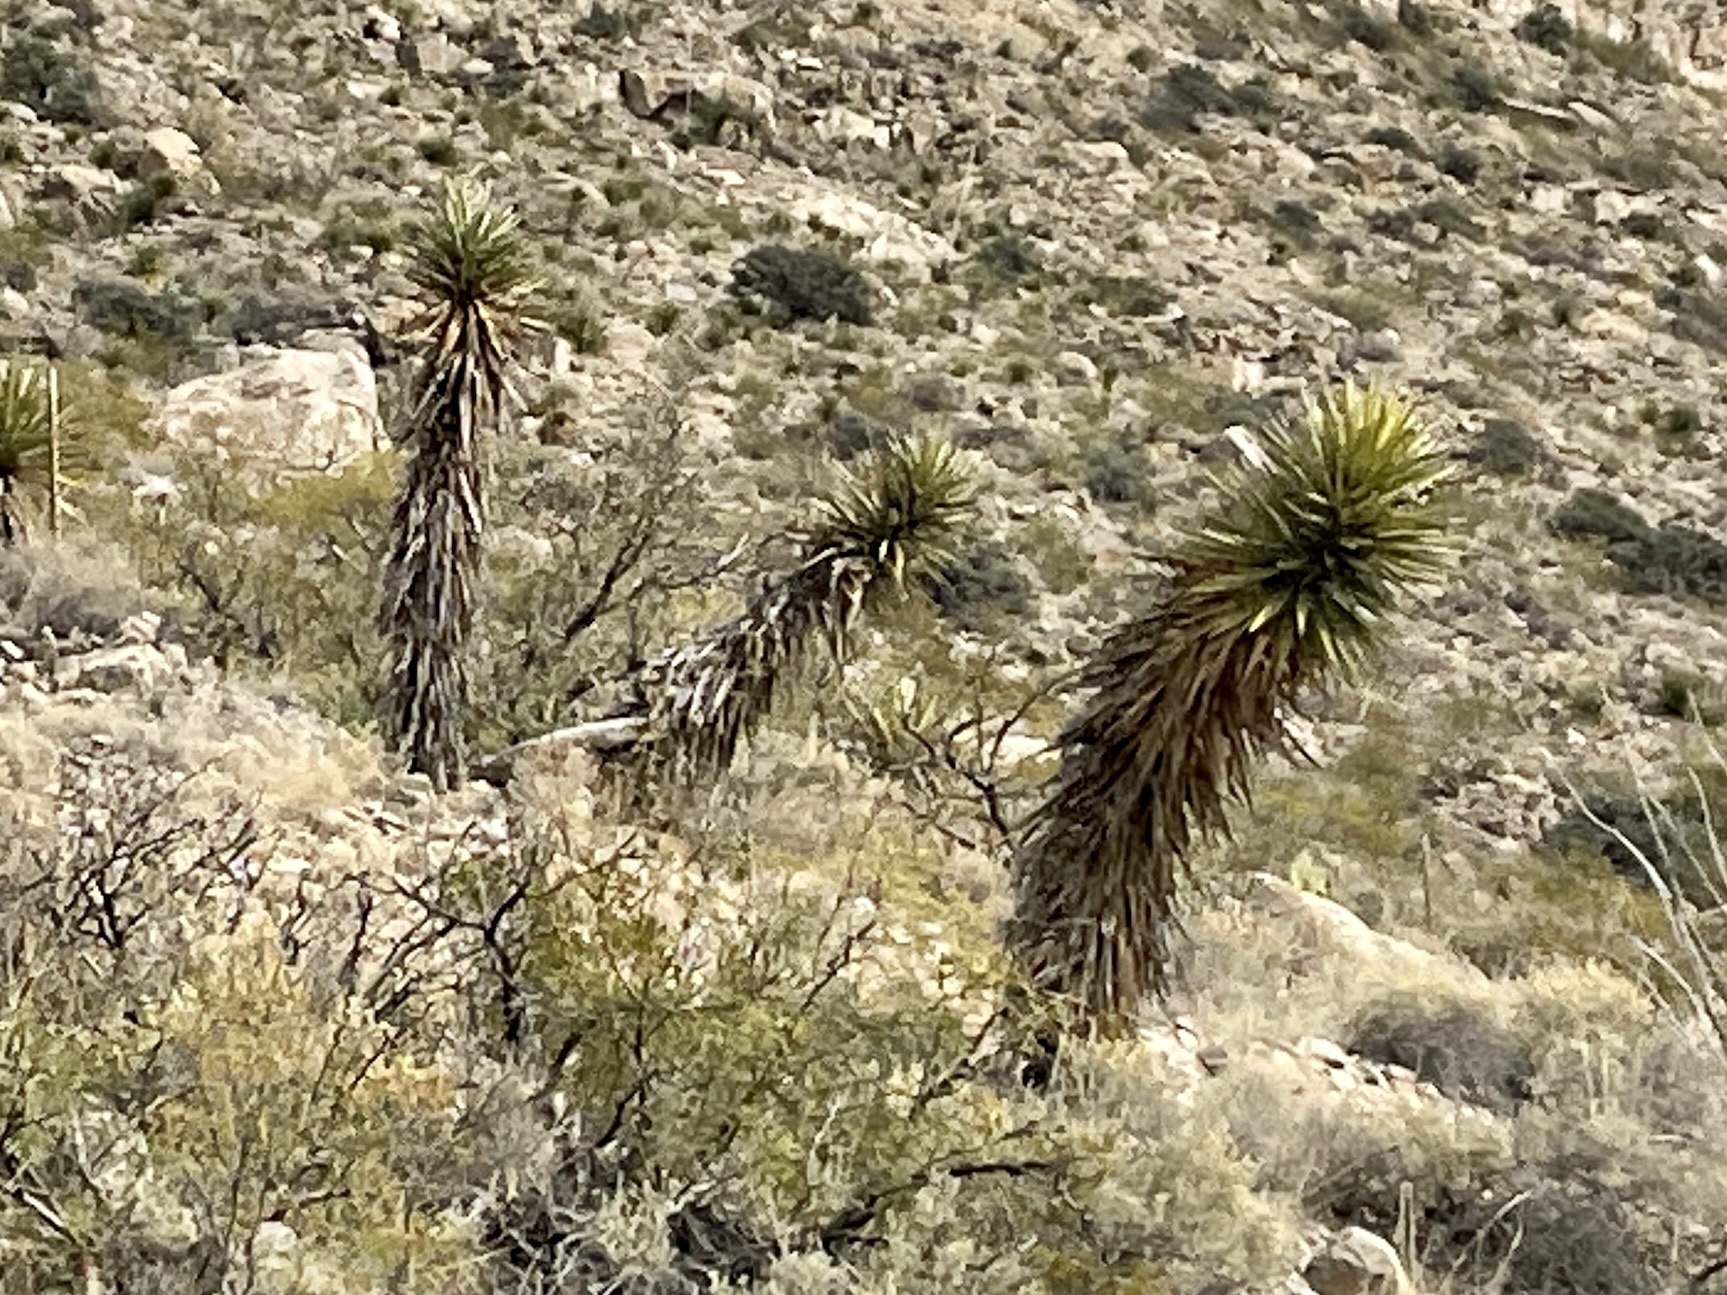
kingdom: Plantae
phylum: Tracheophyta
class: Liliopsida
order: Asparagales
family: Asparagaceae
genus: Yucca
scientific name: Yucca treculiana
